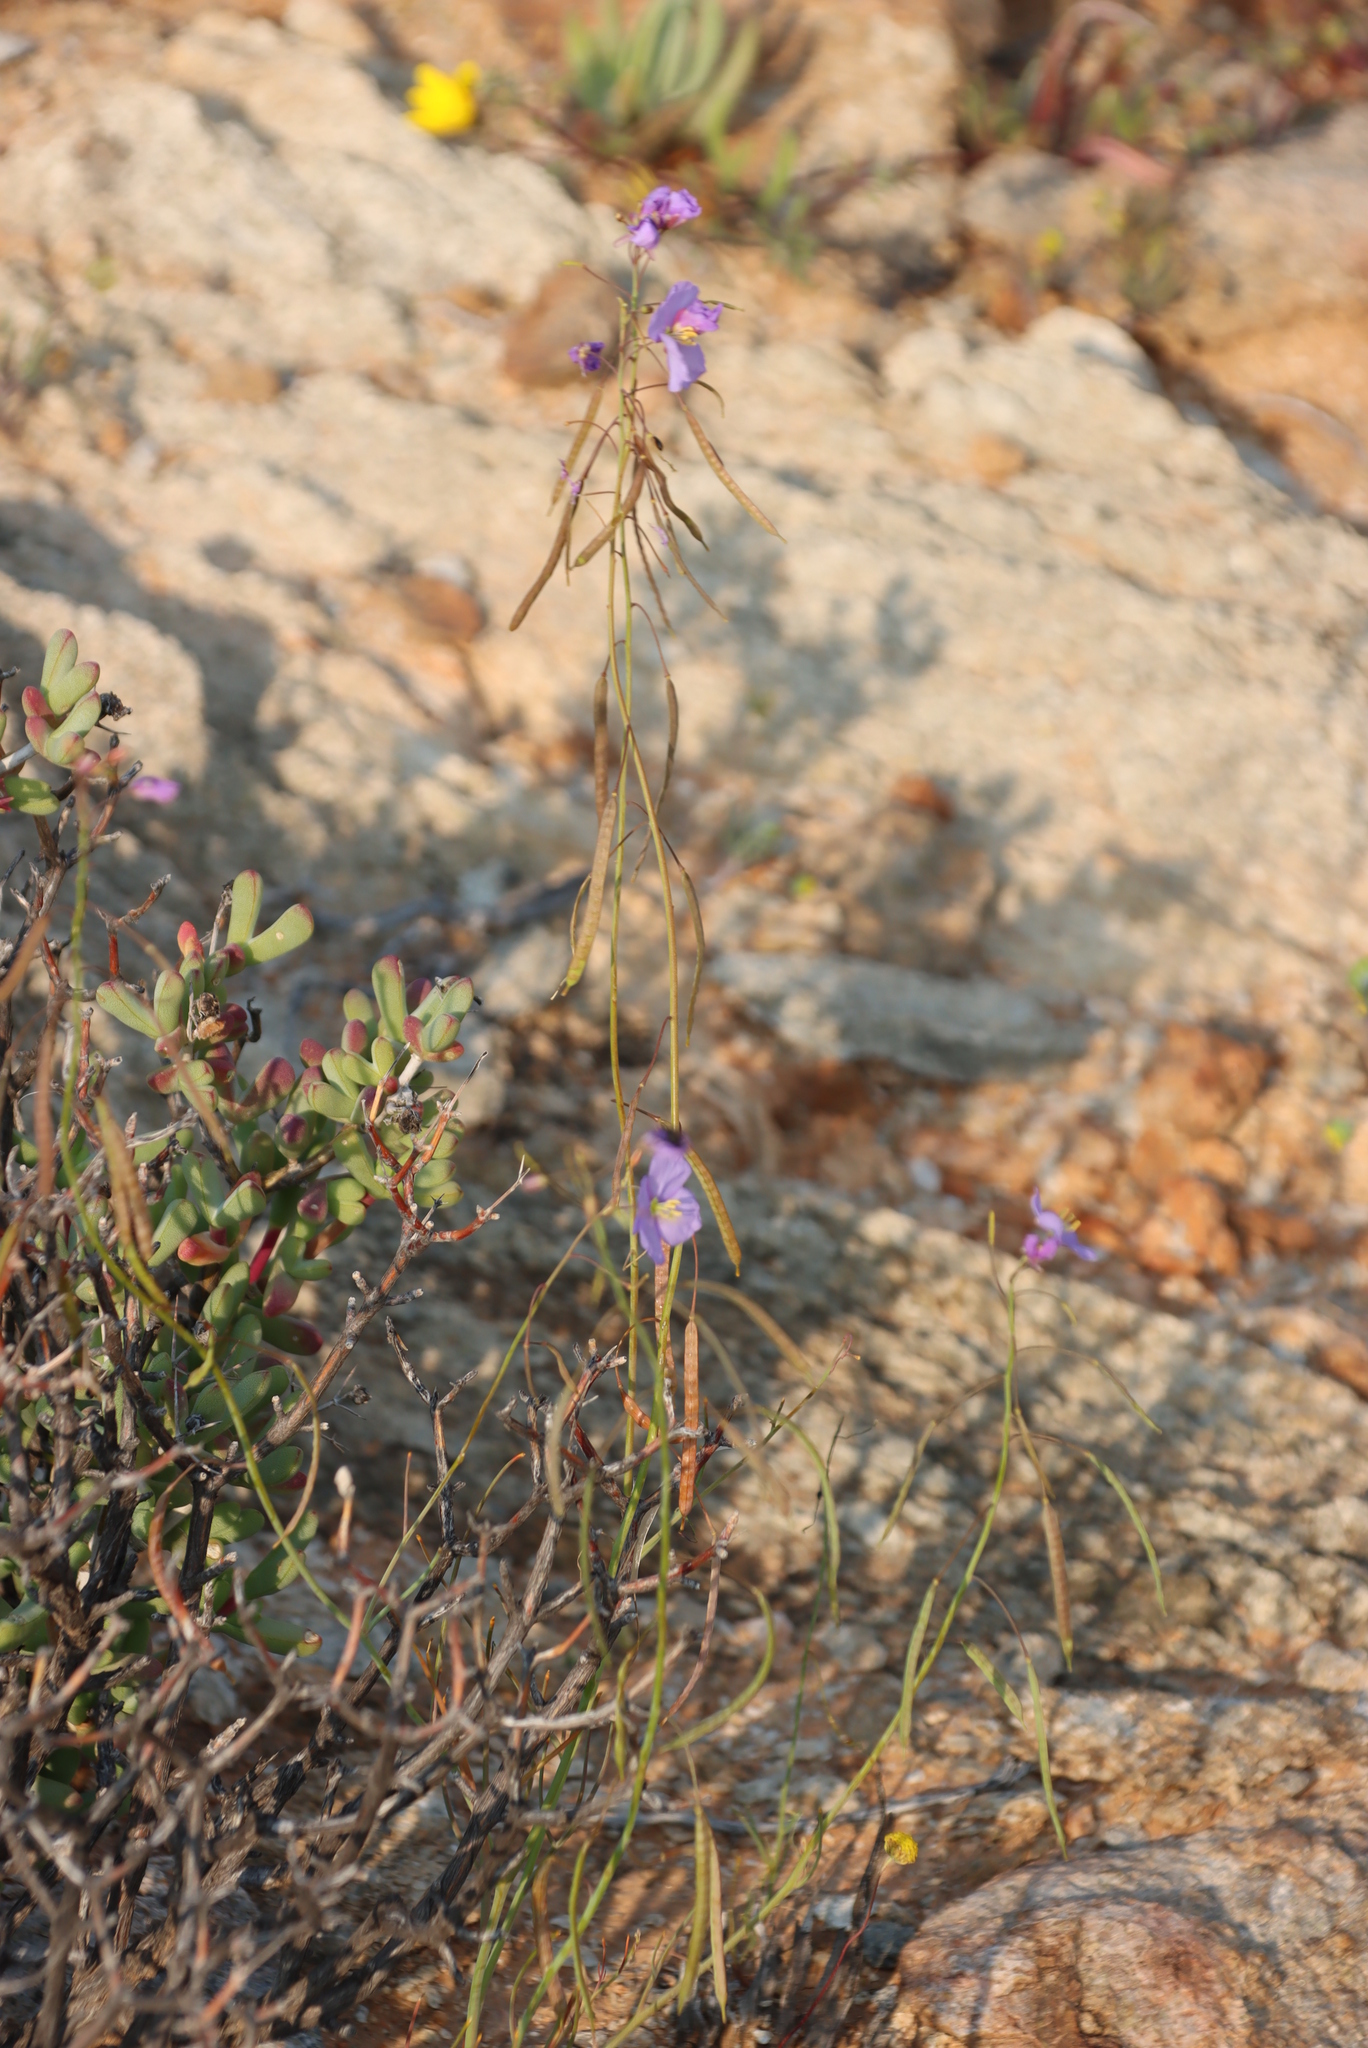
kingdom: Plantae
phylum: Tracheophyta
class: Magnoliopsida
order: Brassicales
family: Brassicaceae
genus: Heliophila
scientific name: Heliophila trifurca
